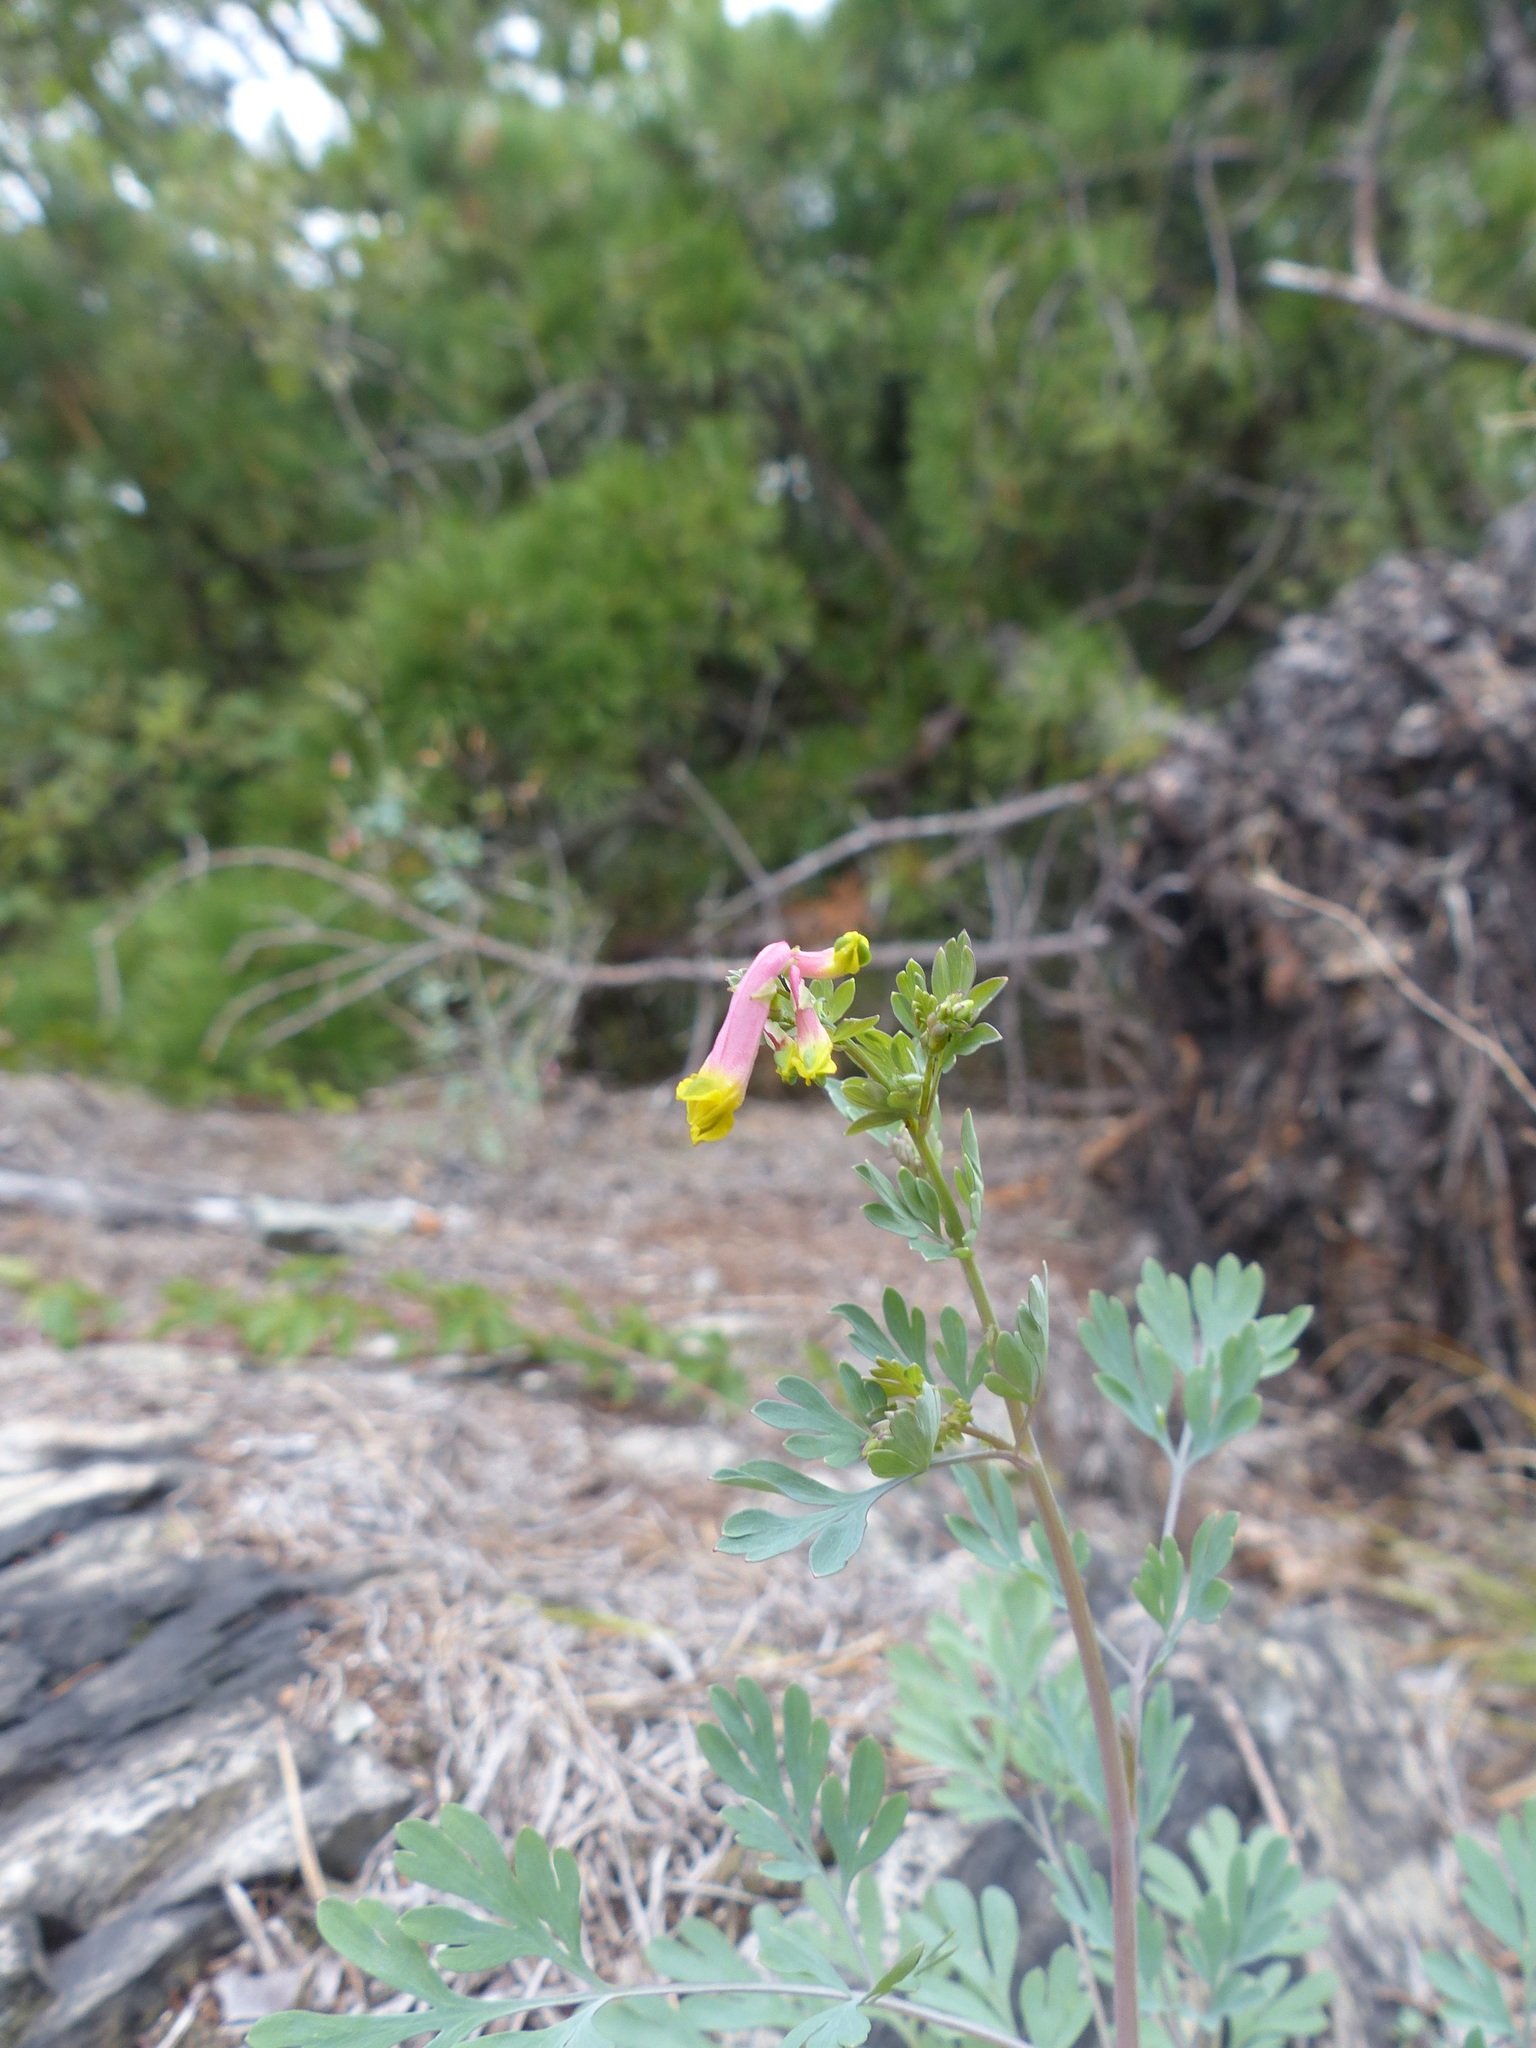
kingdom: Plantae
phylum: Tracheophyta
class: Magnoliopsida
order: Ranunculales
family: Papaveraceae
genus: Capnoides
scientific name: Capnoides sempervirens
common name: Rock harlequin
